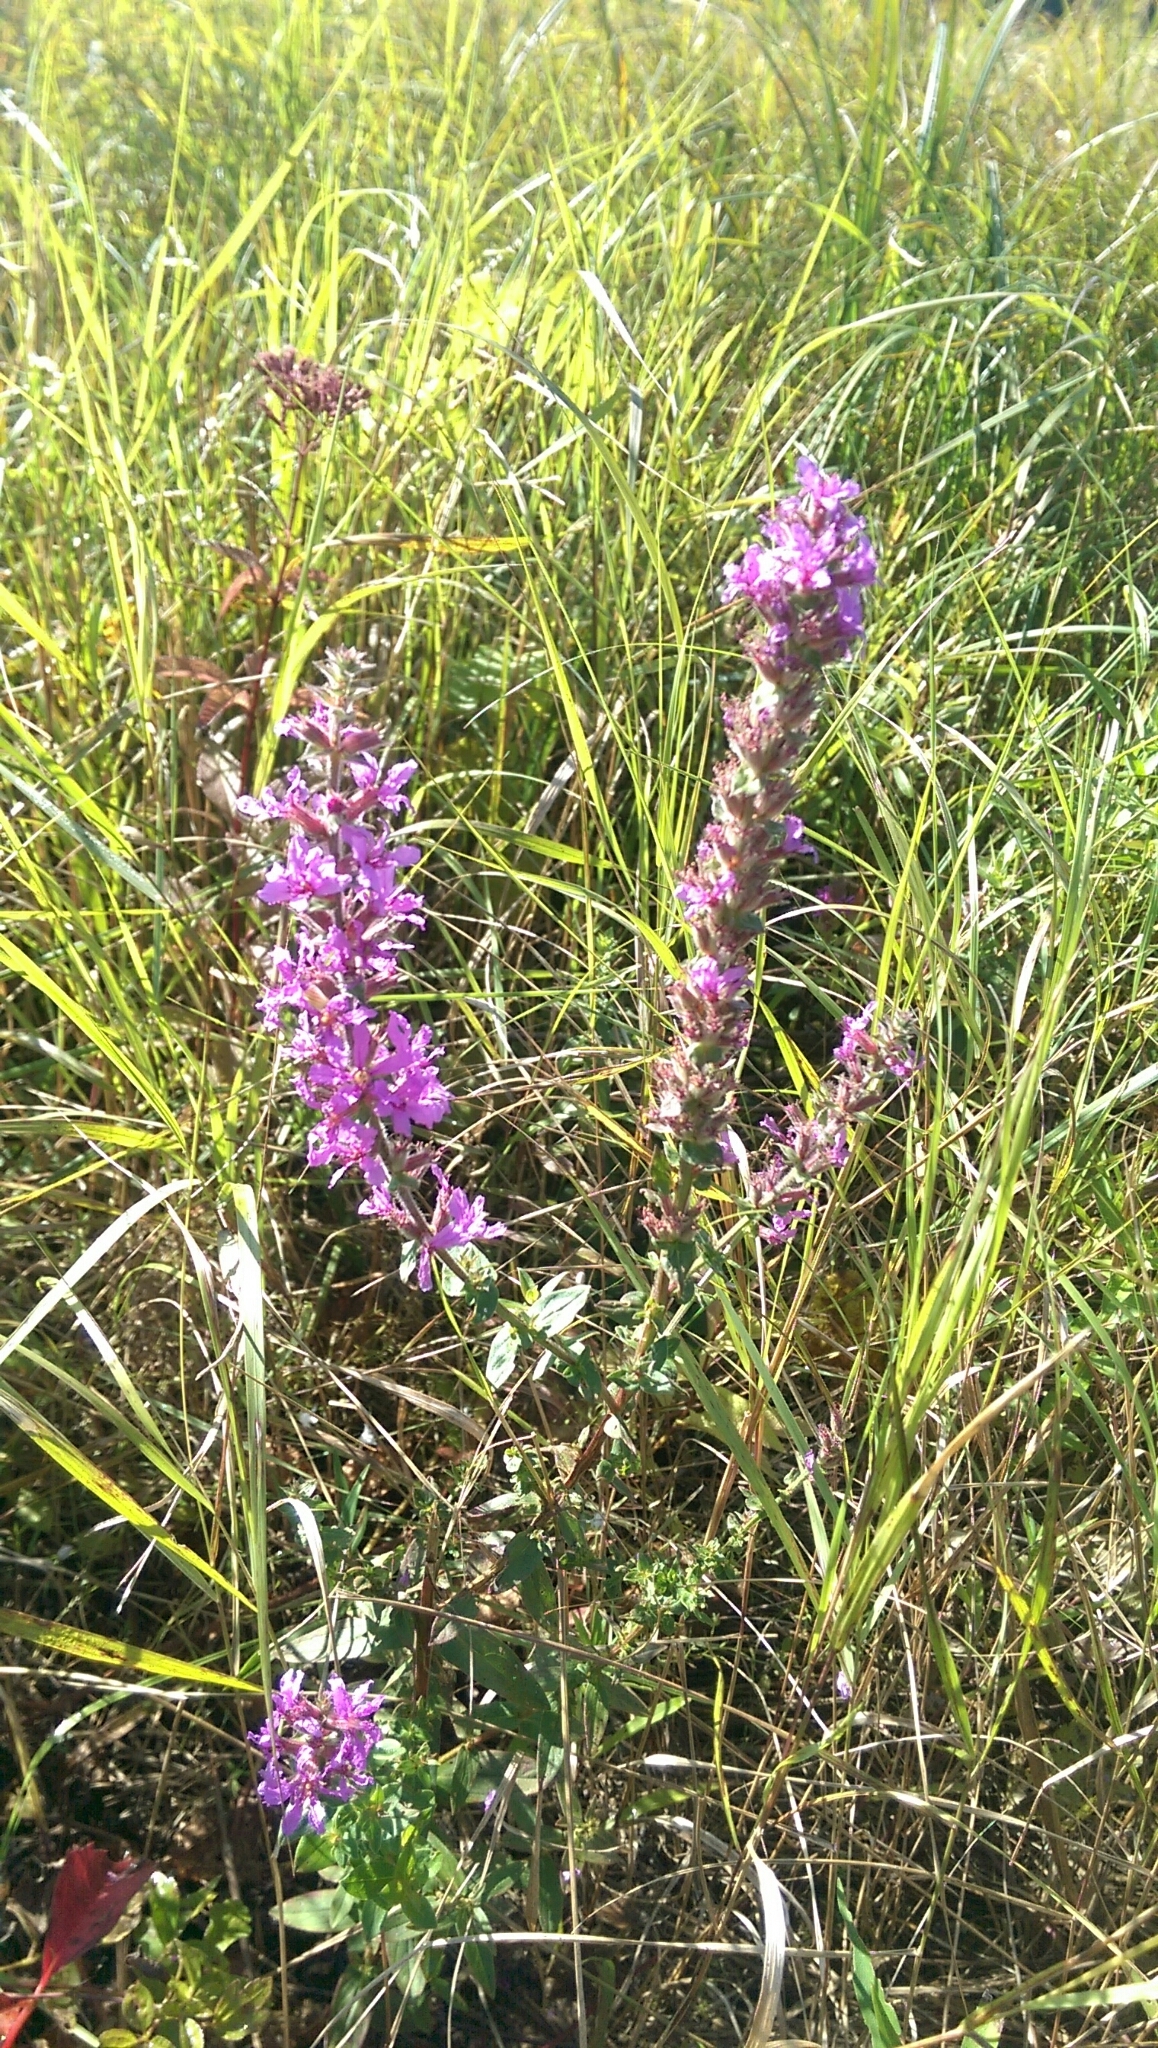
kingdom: Plantae
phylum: Tracheophyta
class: Magnoliopsida
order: Myrtales
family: Lythraceae
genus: Lythrum
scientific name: Lythrum salicaria
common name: Purple loosestrife
